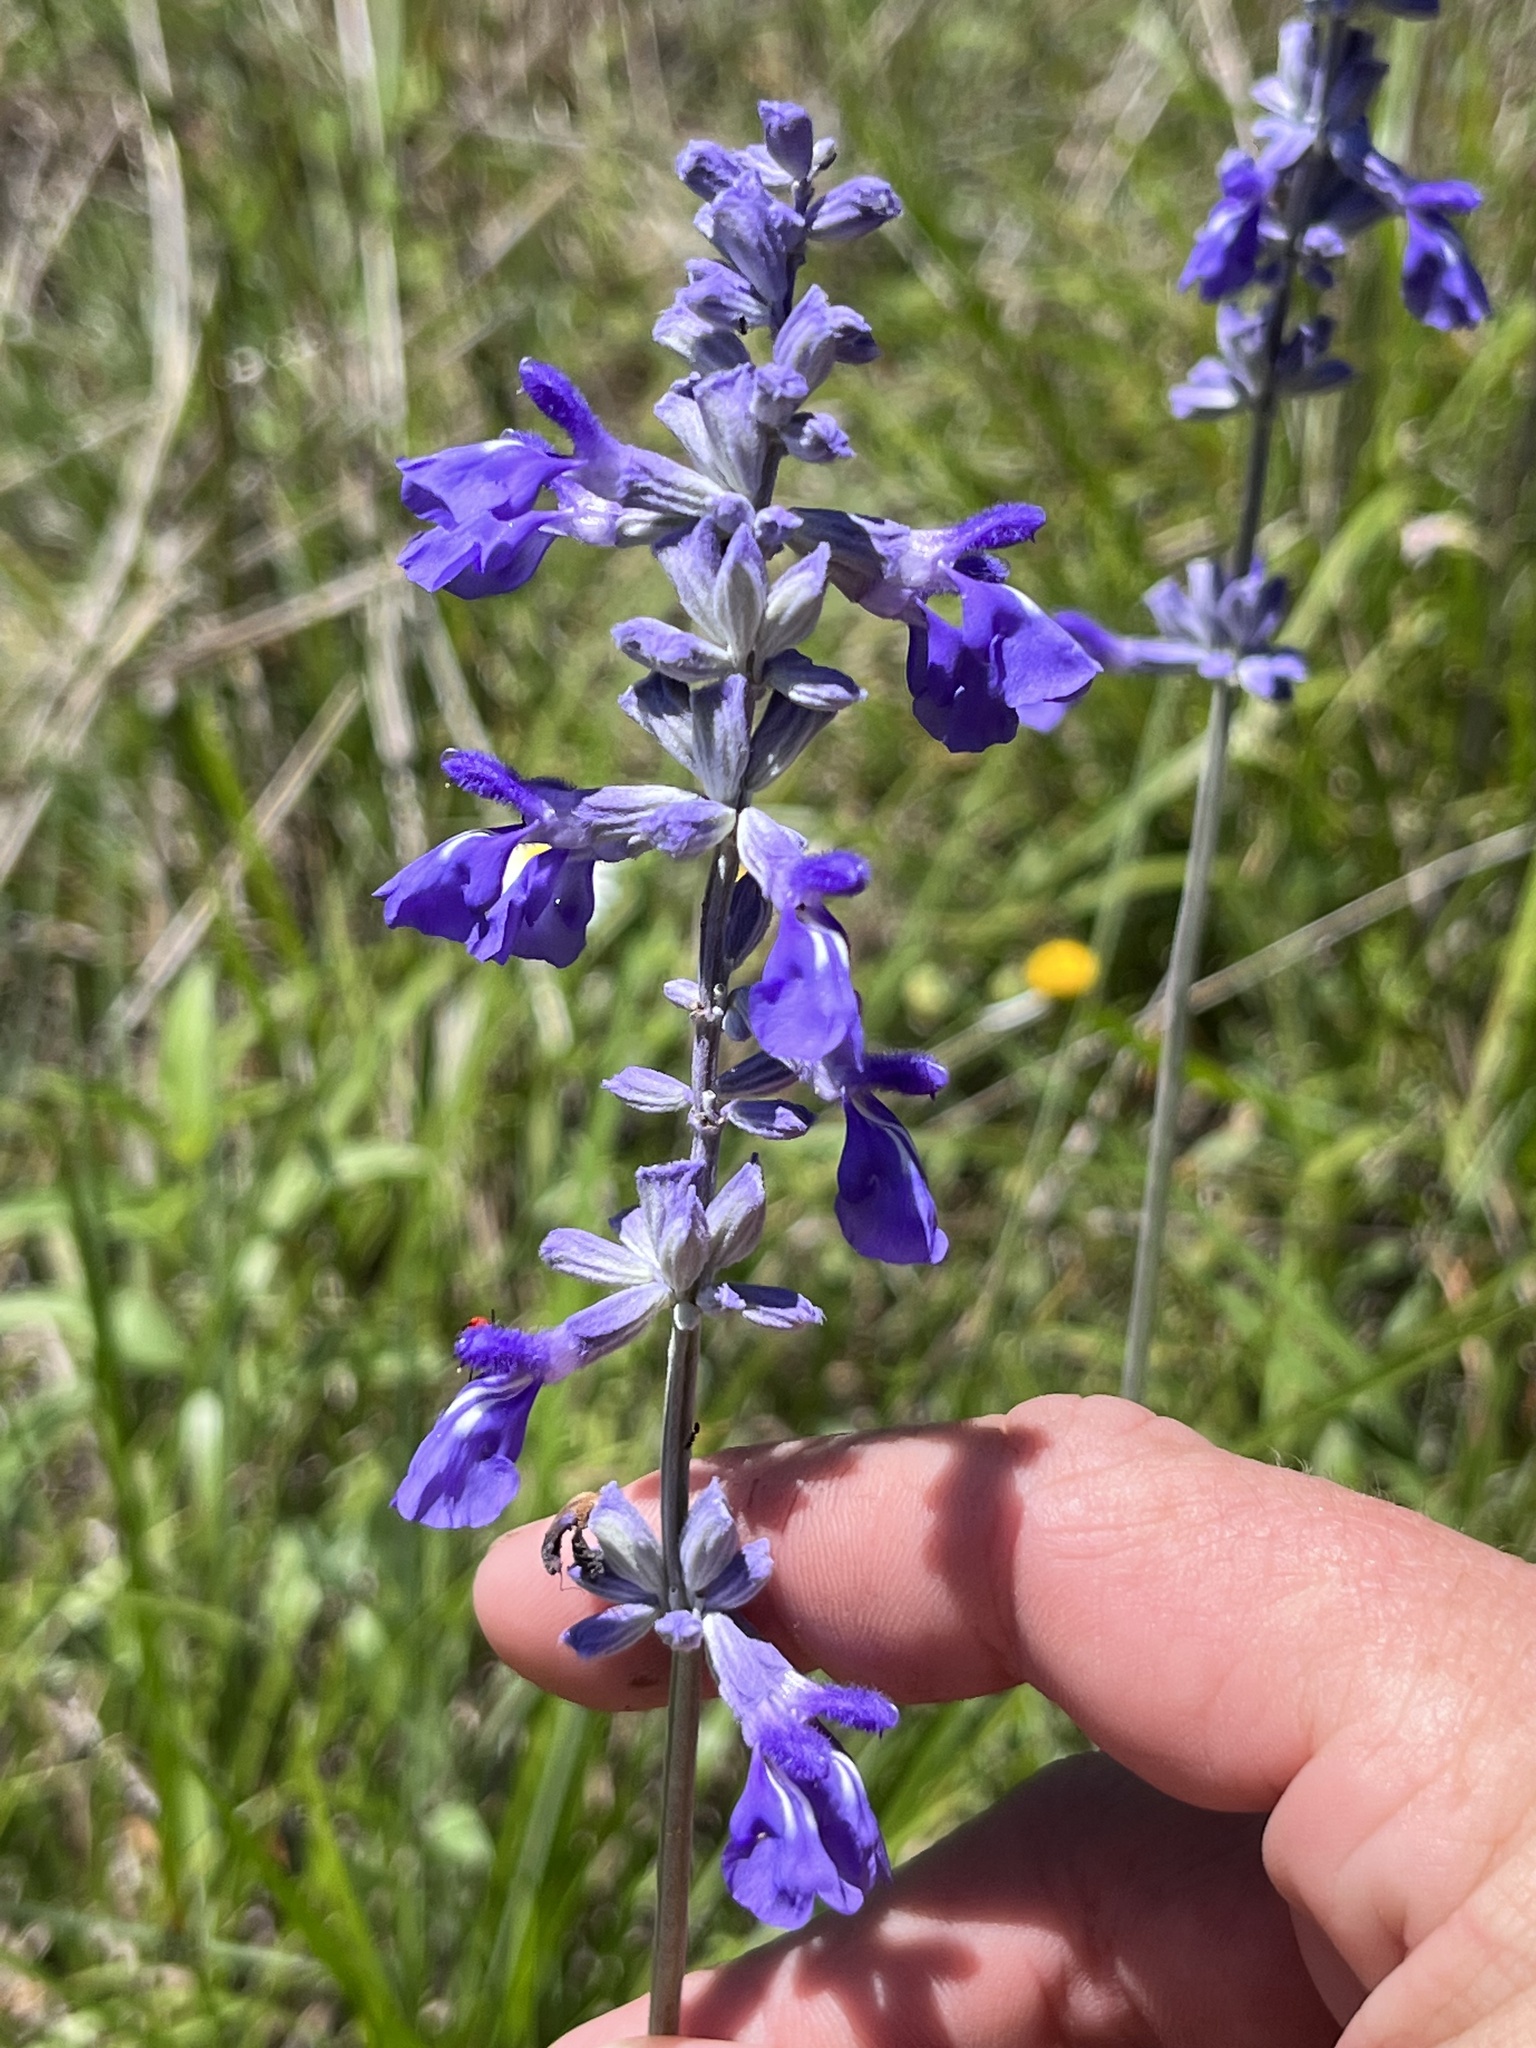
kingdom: Plantae
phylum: Tracheophyta
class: Magnoliopsida
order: Lamiales
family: Lamiaceae
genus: Salvia
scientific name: Salvia farinacea
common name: Mealy sage
